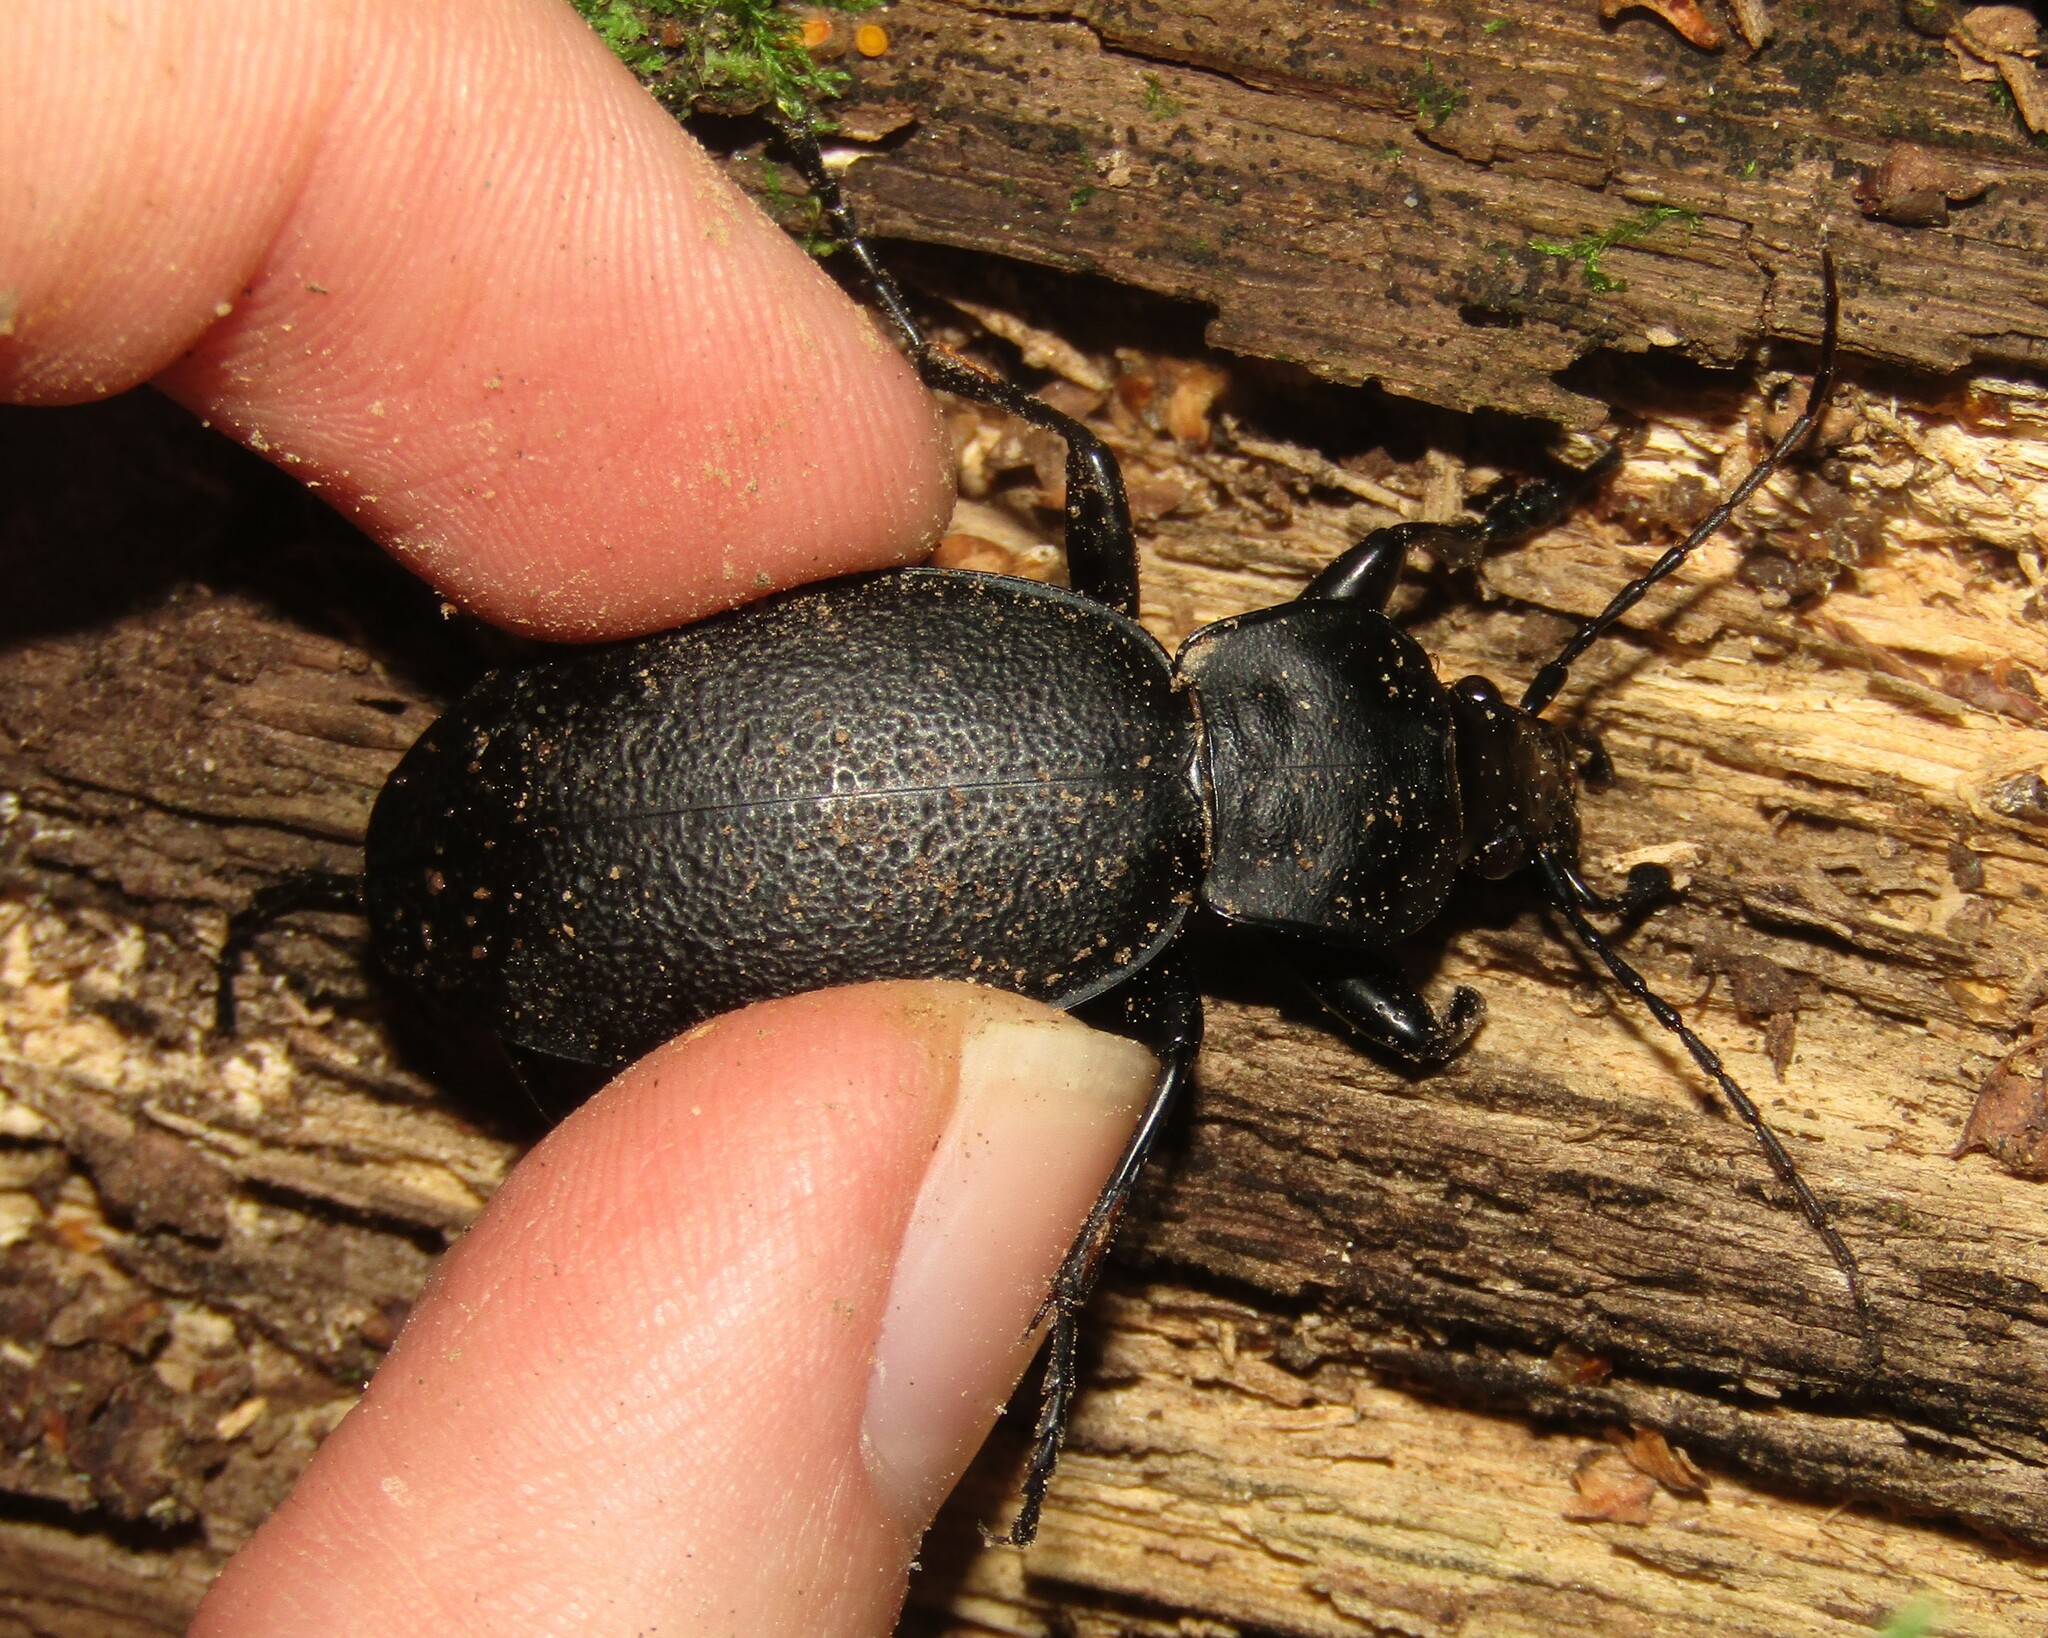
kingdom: Animalia
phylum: Arthropoda
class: Insecta
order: Coleoptera
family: Carabidae
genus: Carabus
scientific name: Carabus coriaceus
